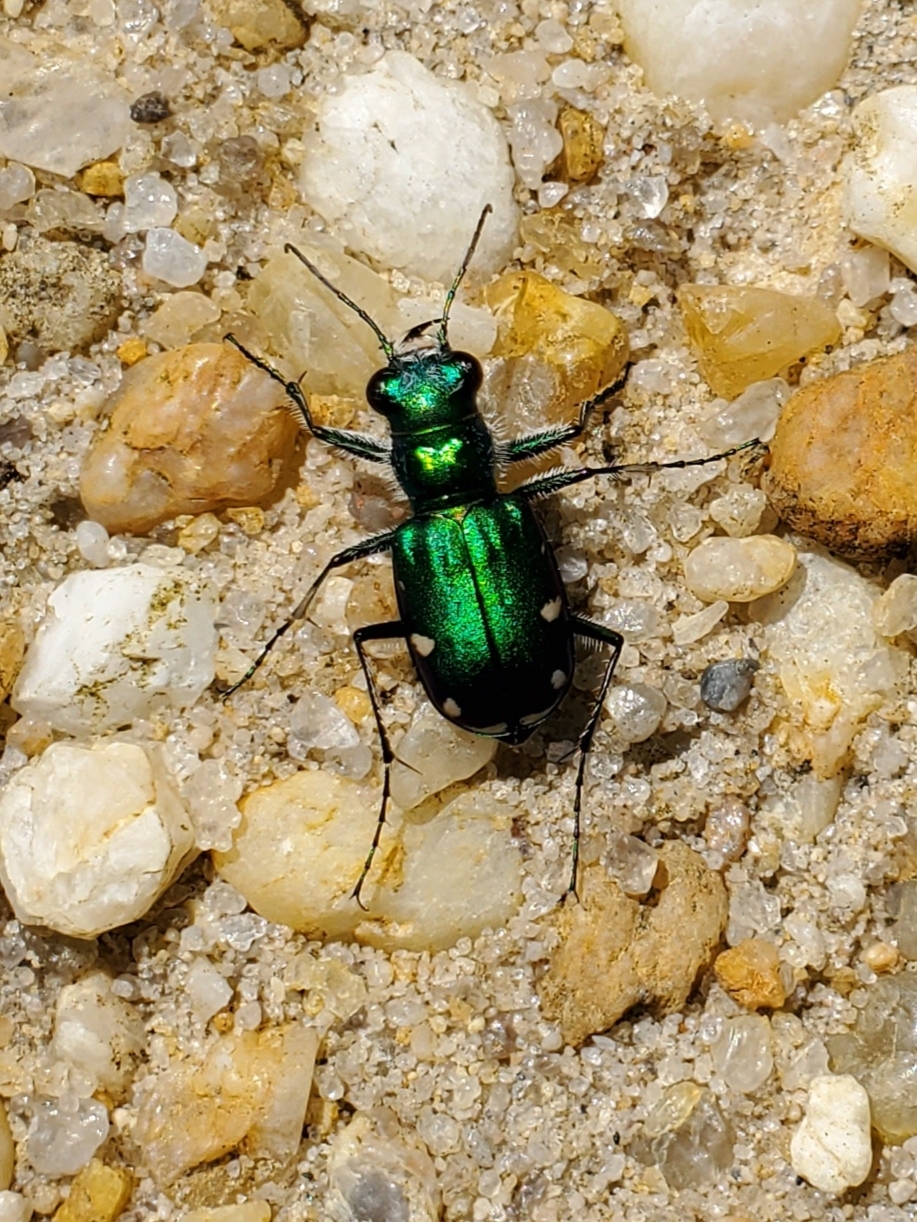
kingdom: Animalia
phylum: Arthropoda
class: Insecta
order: Coleoptera
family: Carabidae
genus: Cicindela
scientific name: Cicindela scutellaris
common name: Festive tiger beetle
